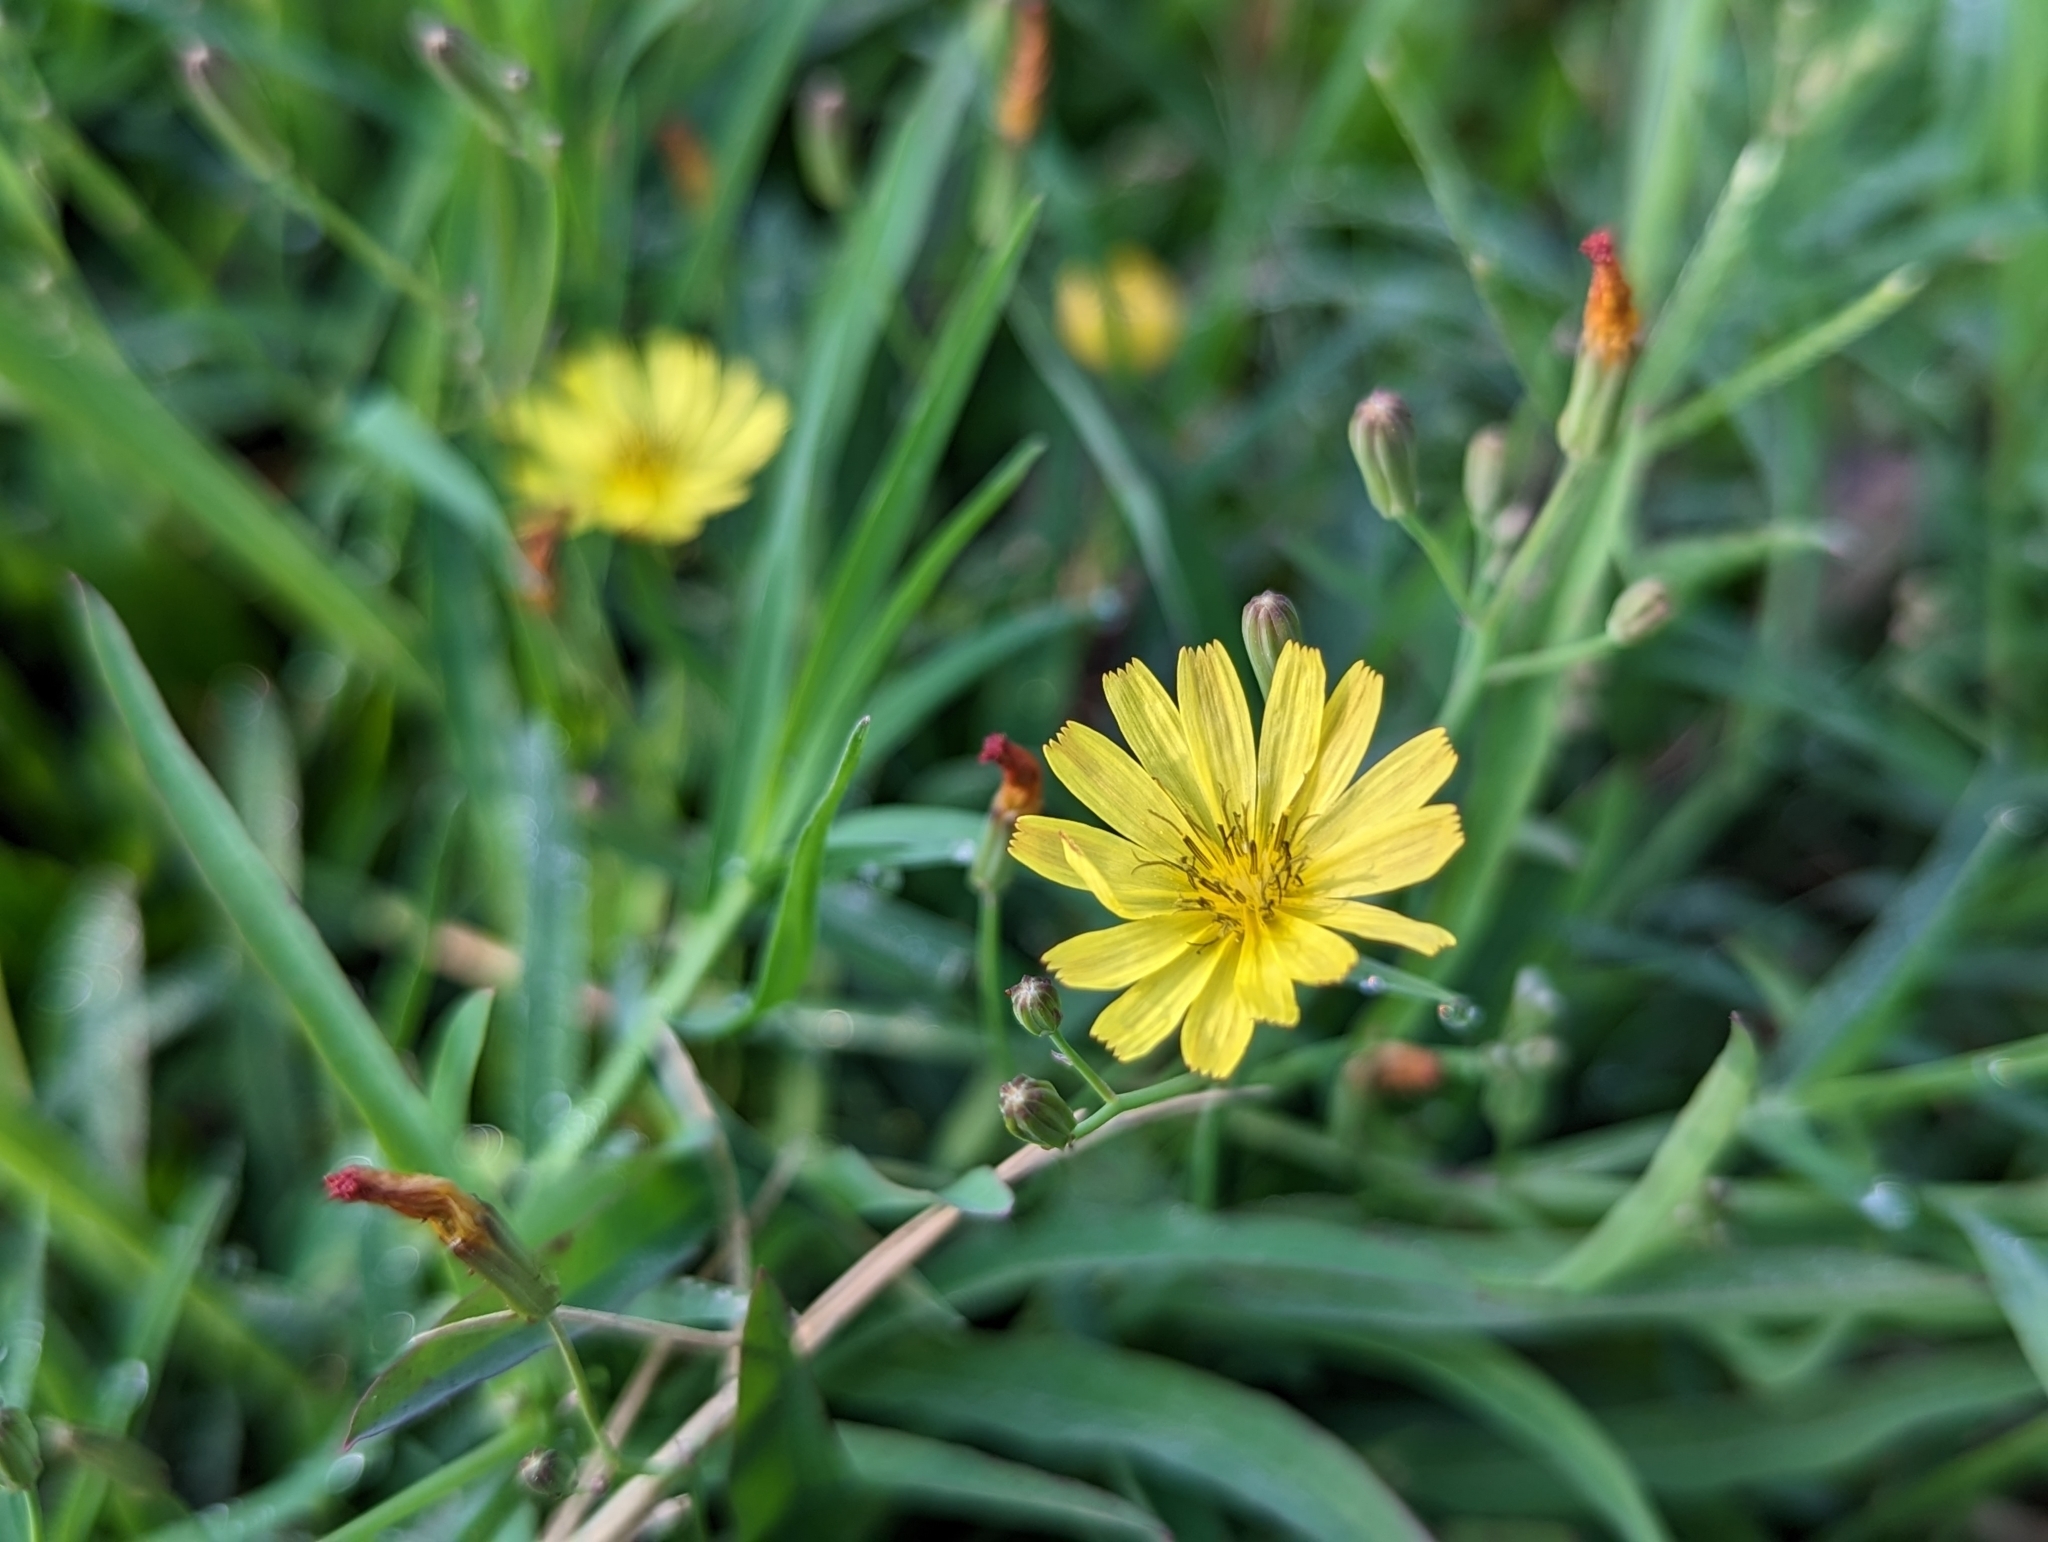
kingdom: Plantae
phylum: Tracheophyta
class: Magnoliopsida
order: Asterales
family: Asteraceae
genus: Ixeris
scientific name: Ixeris chinensis
